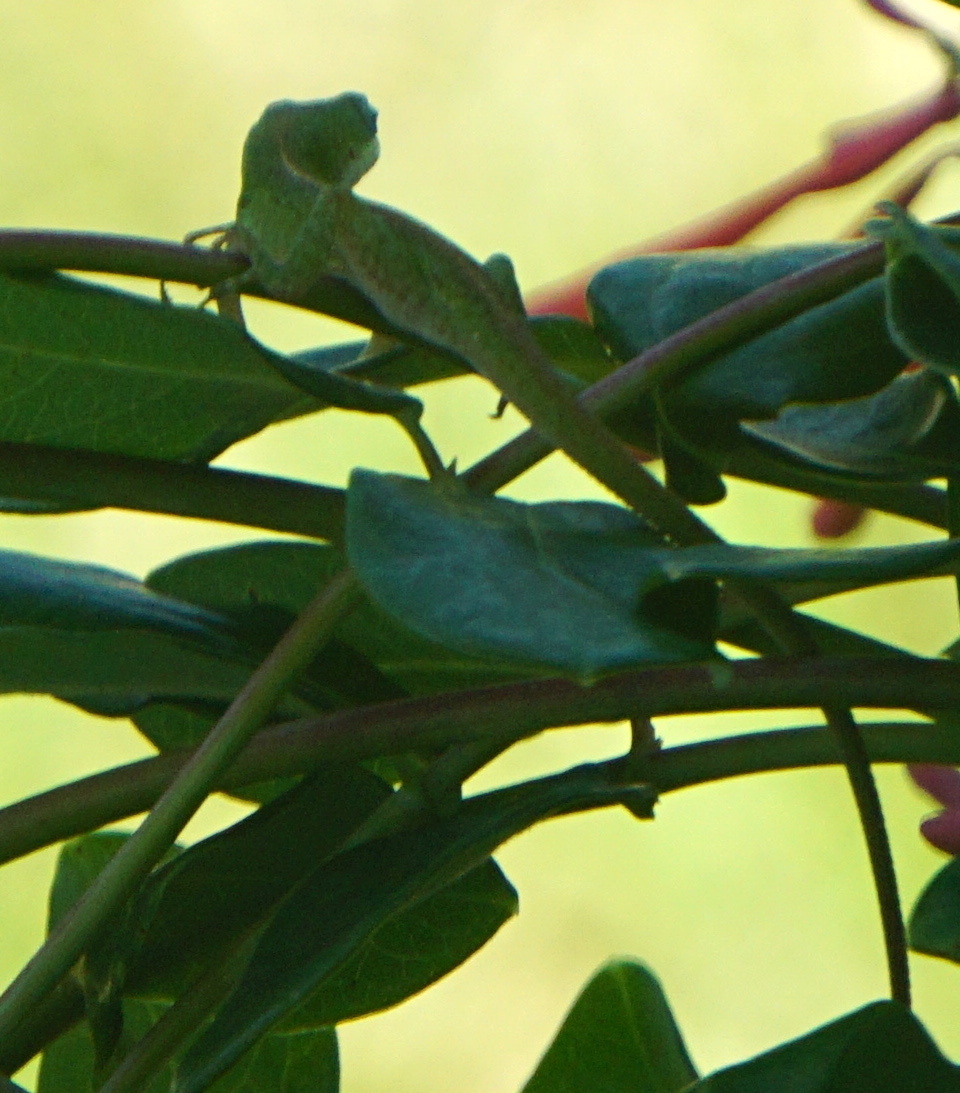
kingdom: Animalia
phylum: Chordata
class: Squamata
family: Dactyloidae
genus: Anolis
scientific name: Anolis carolinensis
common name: Green anole
